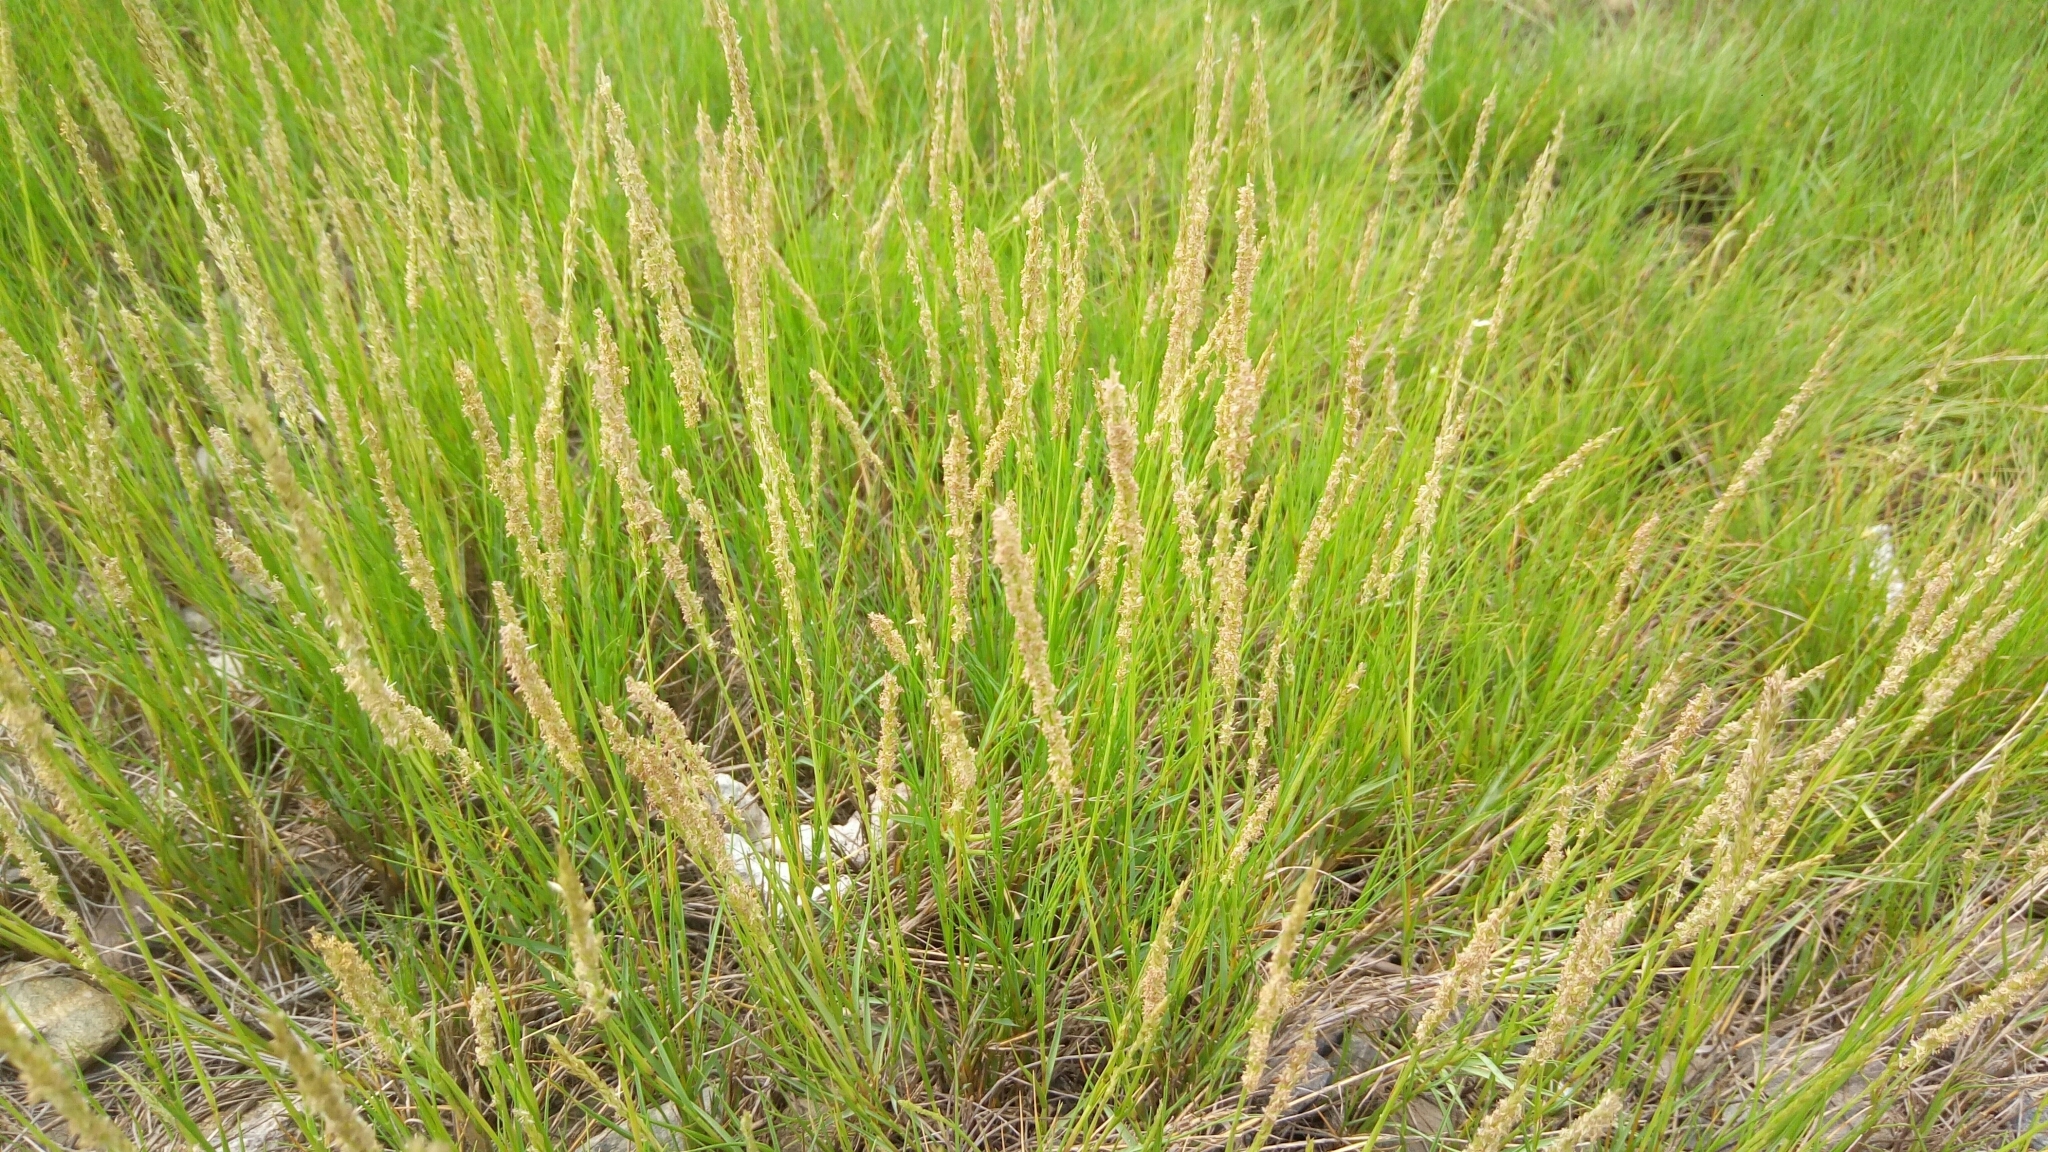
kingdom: Plantae
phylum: Tracheophyta
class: Liliopsida
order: Poales
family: Poaceae
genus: Sporobolus
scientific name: Sporobolus virginicus
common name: Beach dropseed
